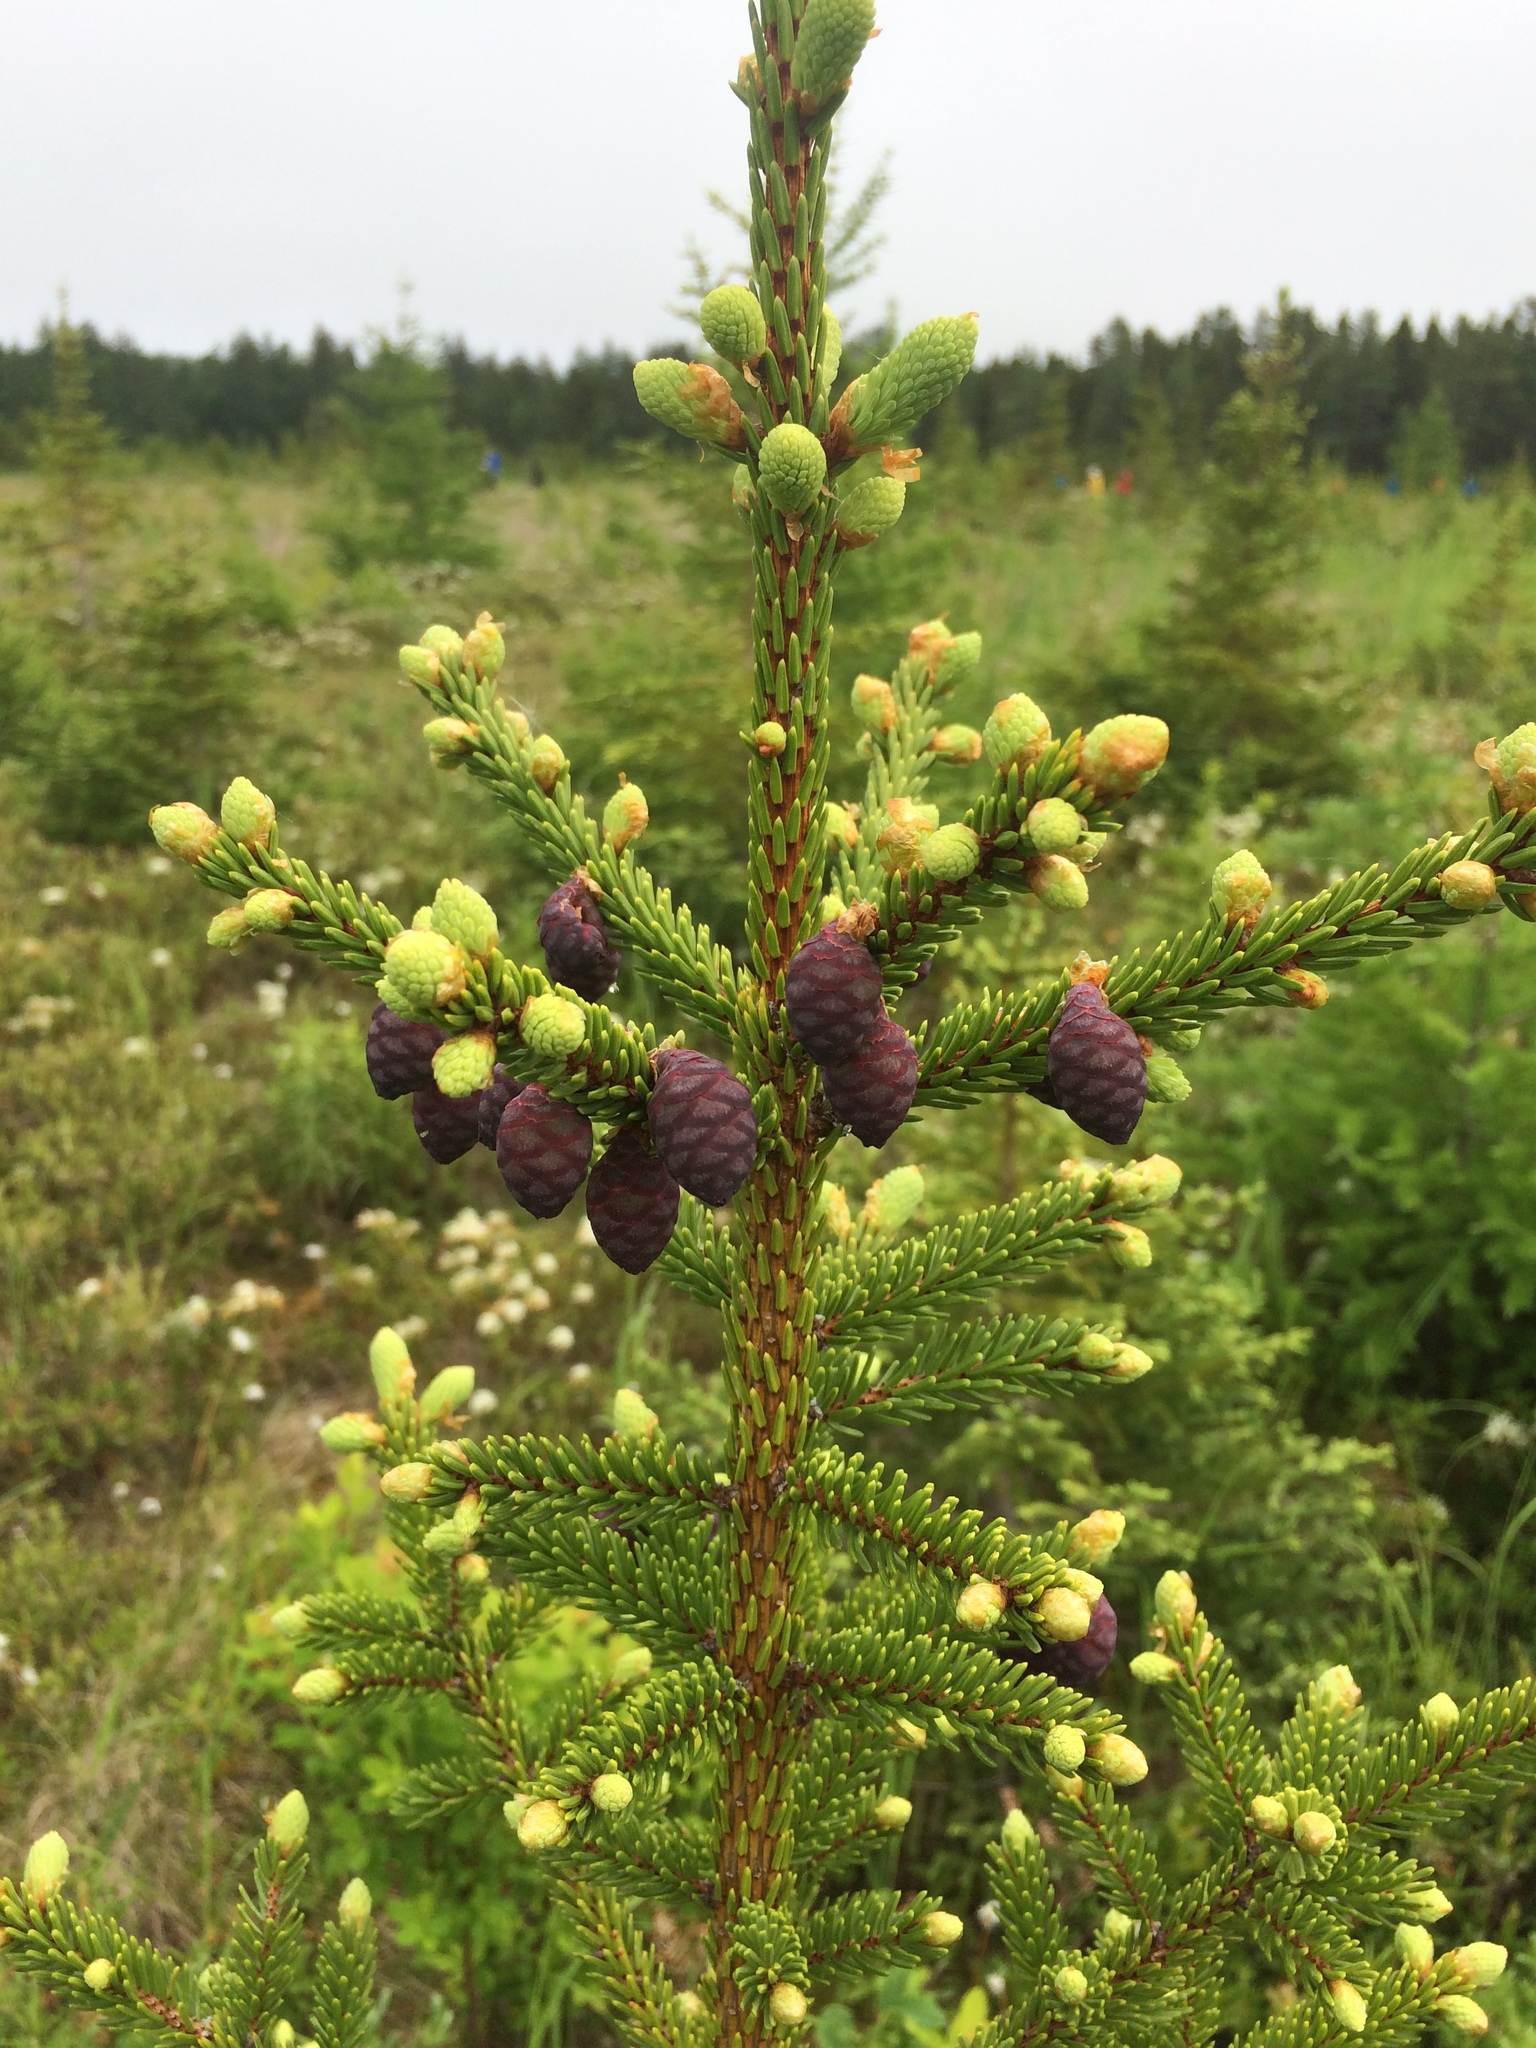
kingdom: Plantae
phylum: Tracheophyta
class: Pinopsida
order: Pinales
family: Pinaceae
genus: Picea
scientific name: Picea mariana
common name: Black spruce
